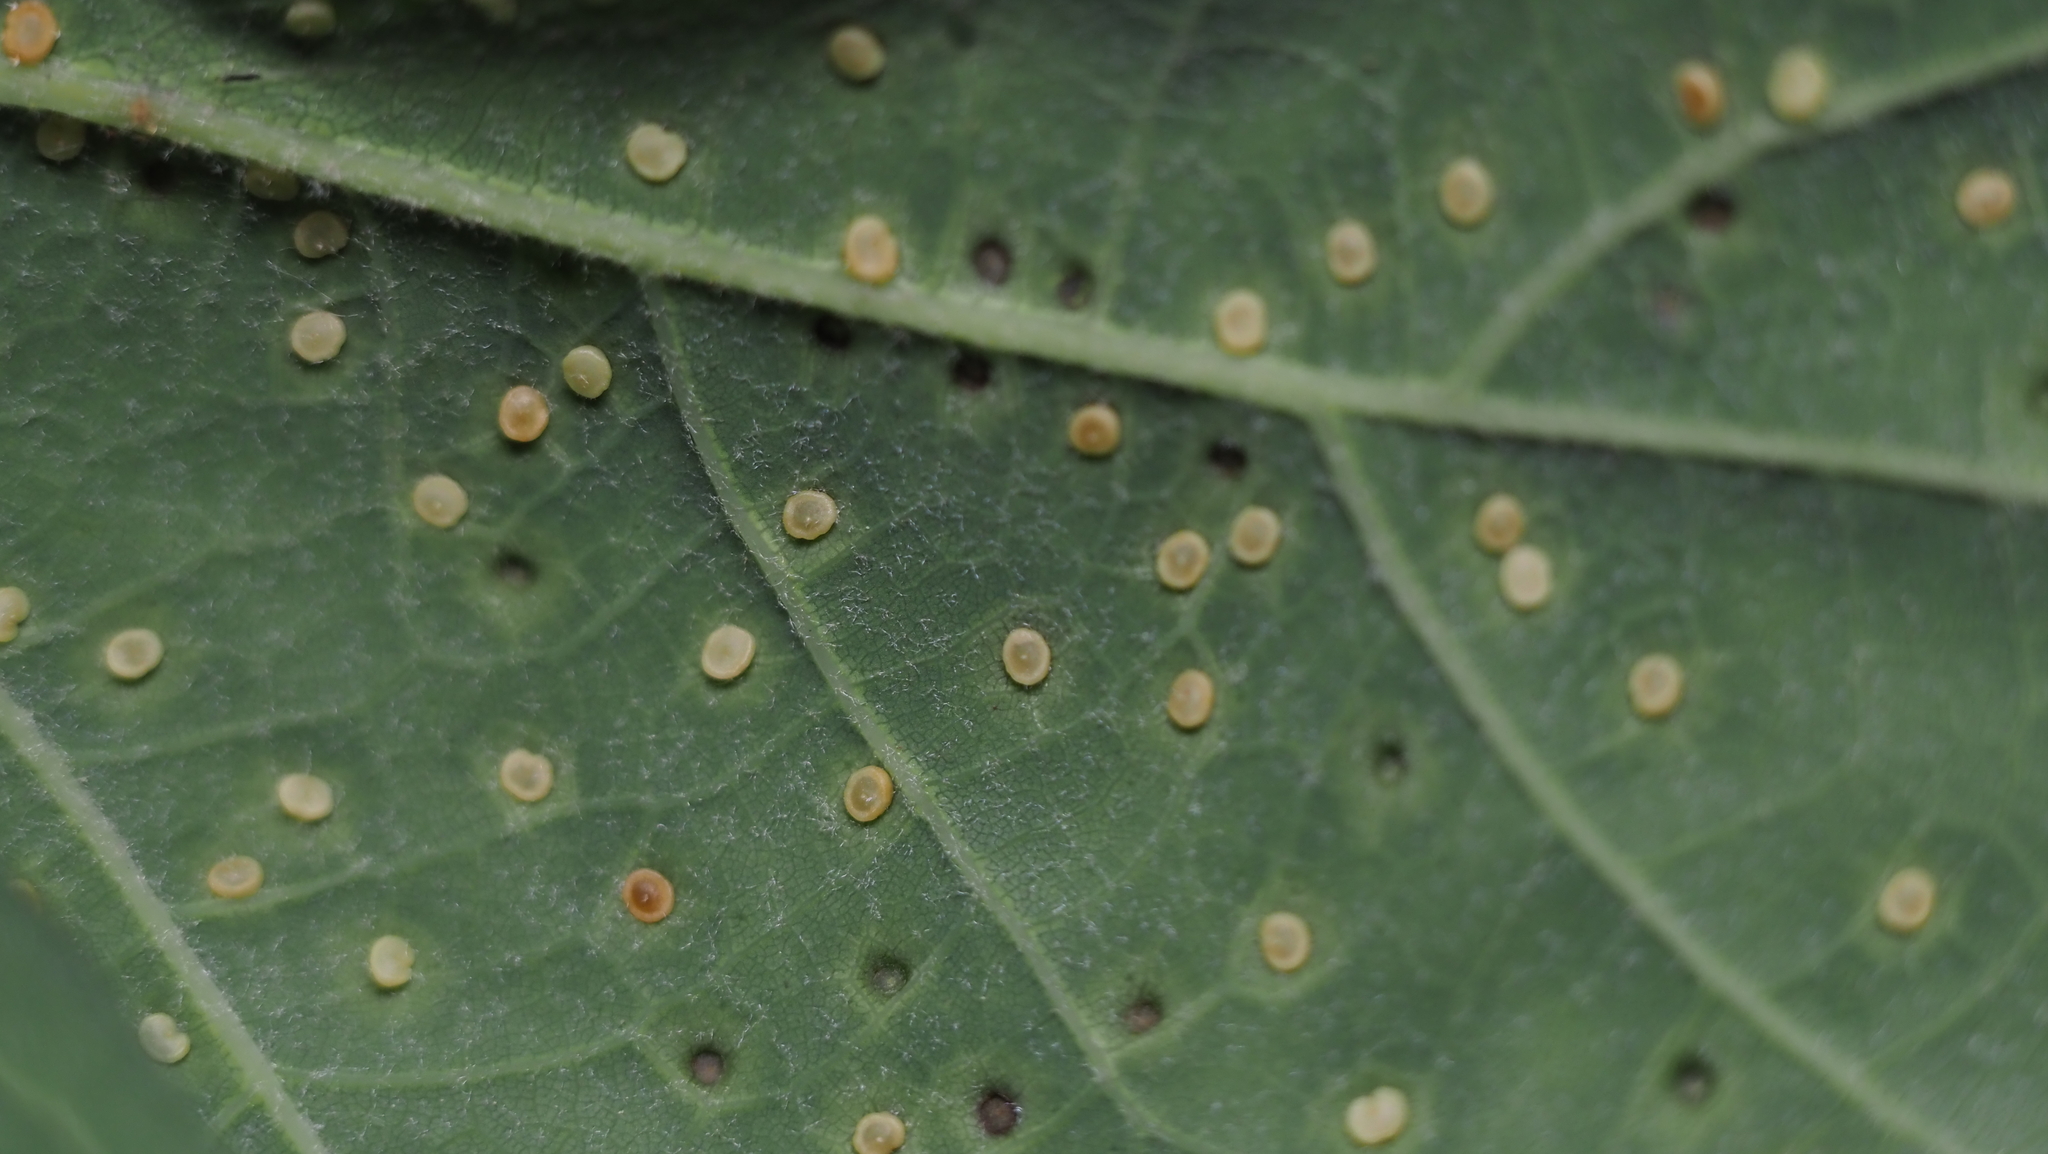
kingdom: Animalia
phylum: Arthropoda
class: Insecta
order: Hymenoptera
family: Cynipidae
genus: Neuroterus
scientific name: Neuroterus
